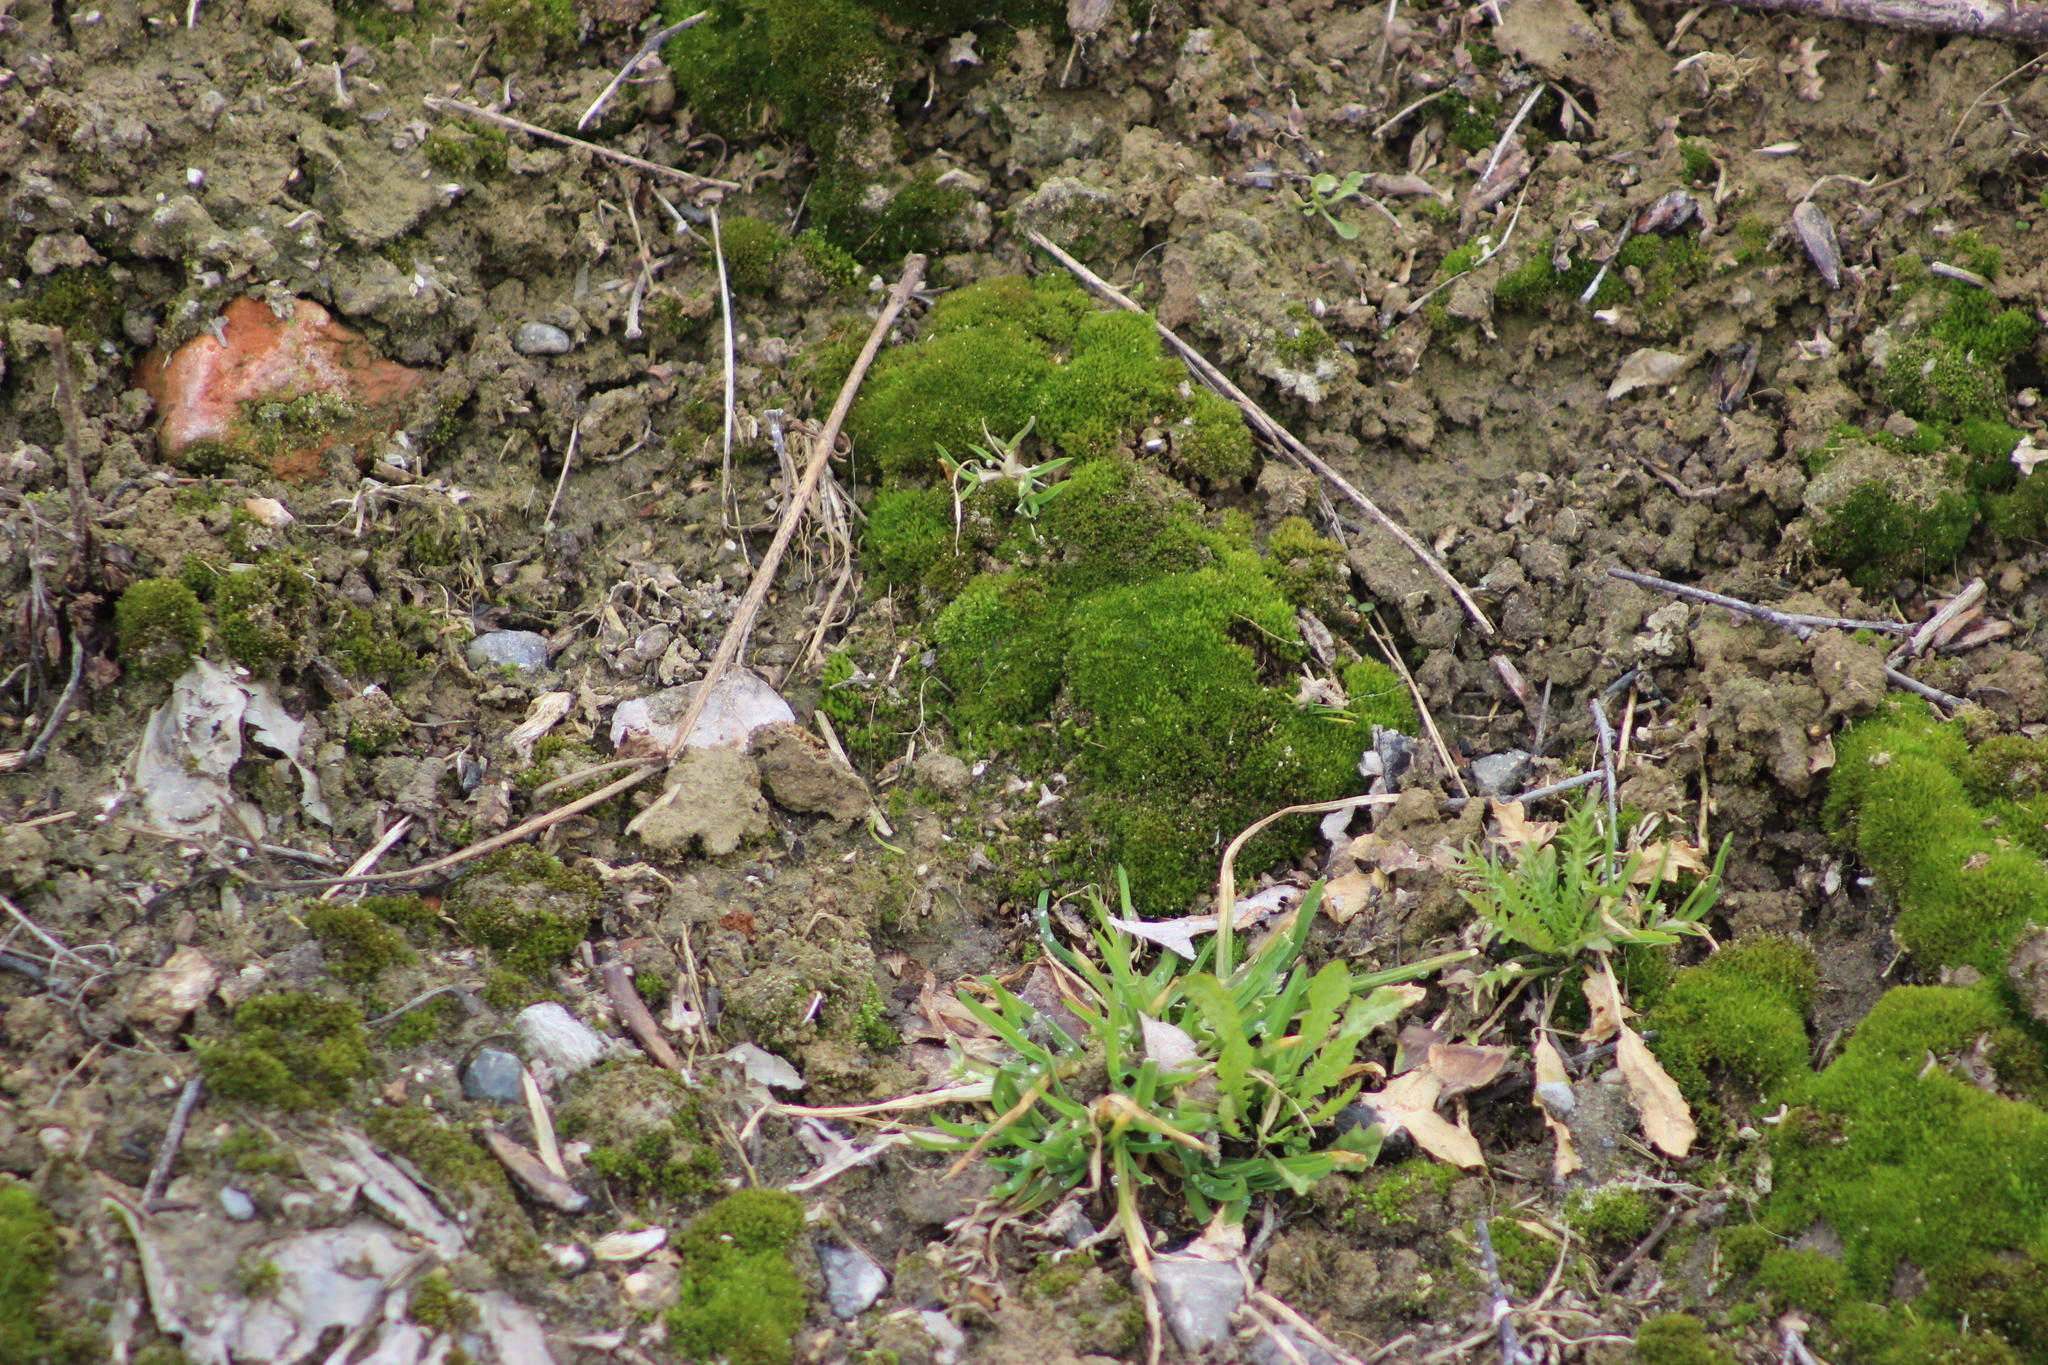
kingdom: Plantae
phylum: Tracheophyta
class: Magnoliopsida
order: Brassicales
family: Brassicaceae
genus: Capsella
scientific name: Capsella bursa-pastoris
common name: Shepherd's purse
